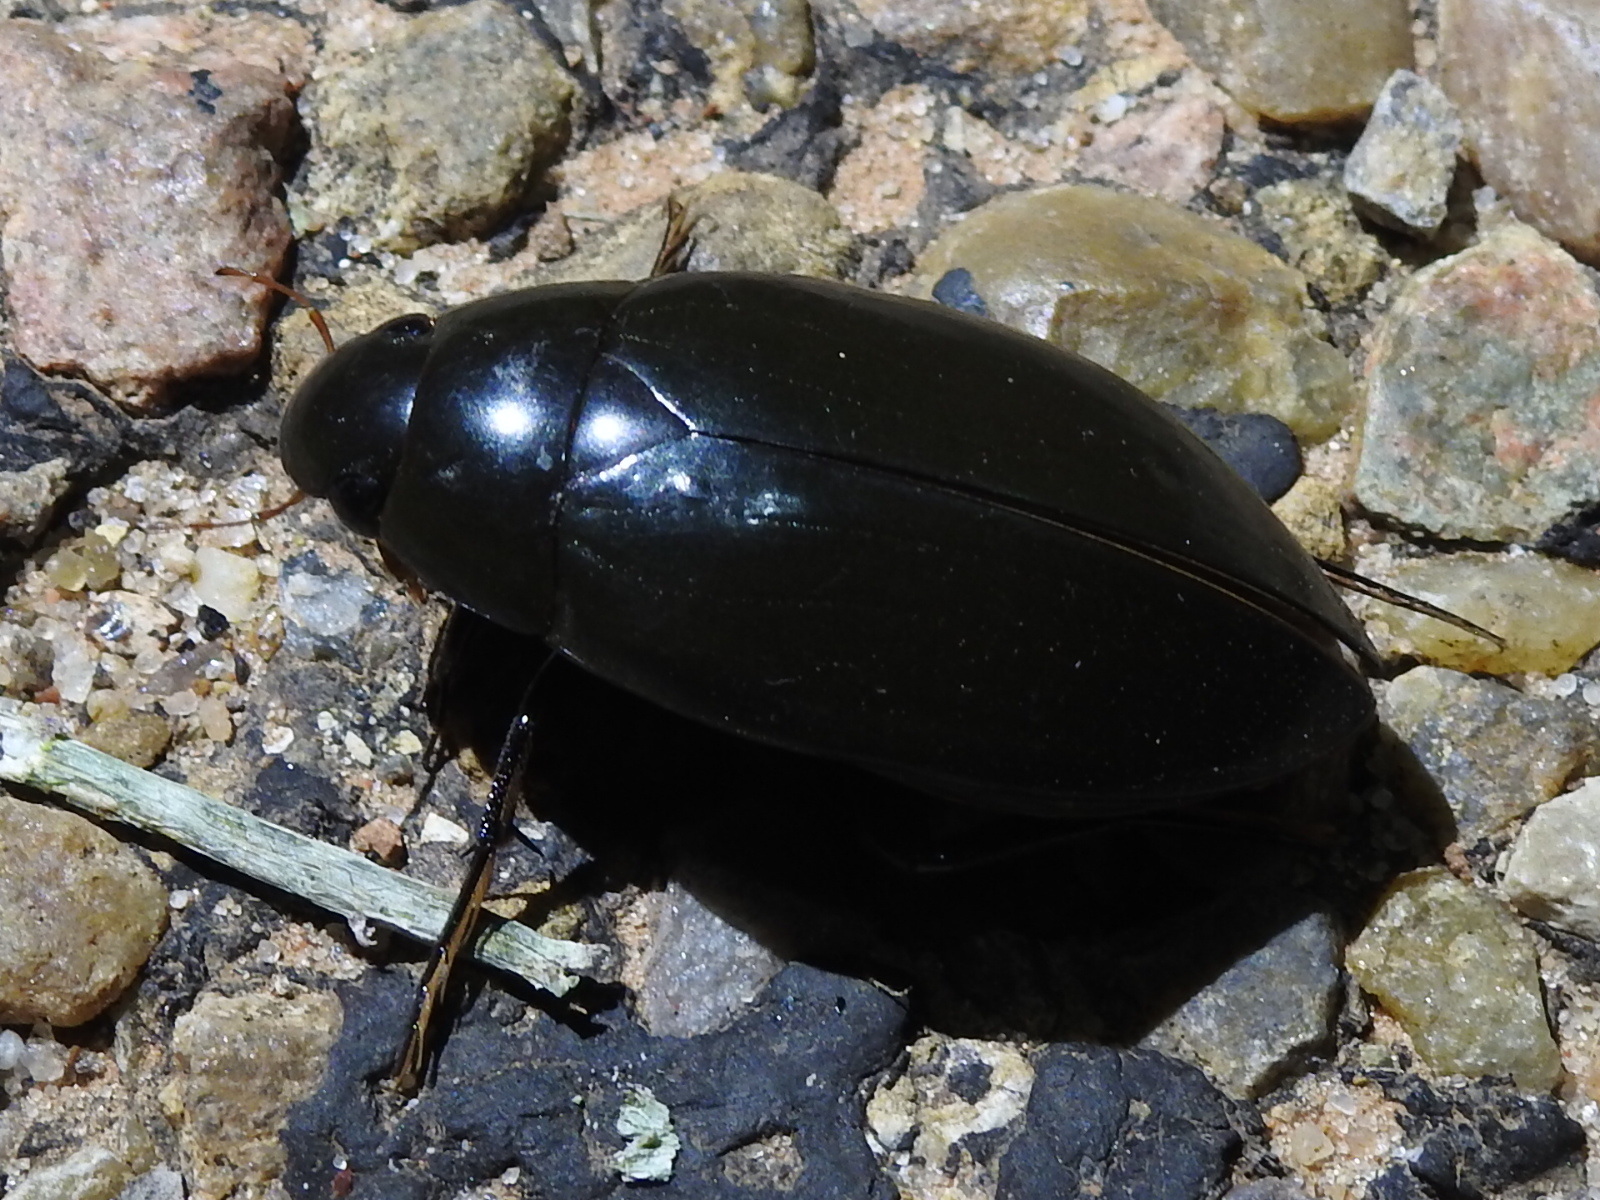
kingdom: Animalia
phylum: Arthropoda
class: Insecta
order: Coleoptera
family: Hydrophilidae
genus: Hydrophilus
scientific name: Hydrophilus triangularis
